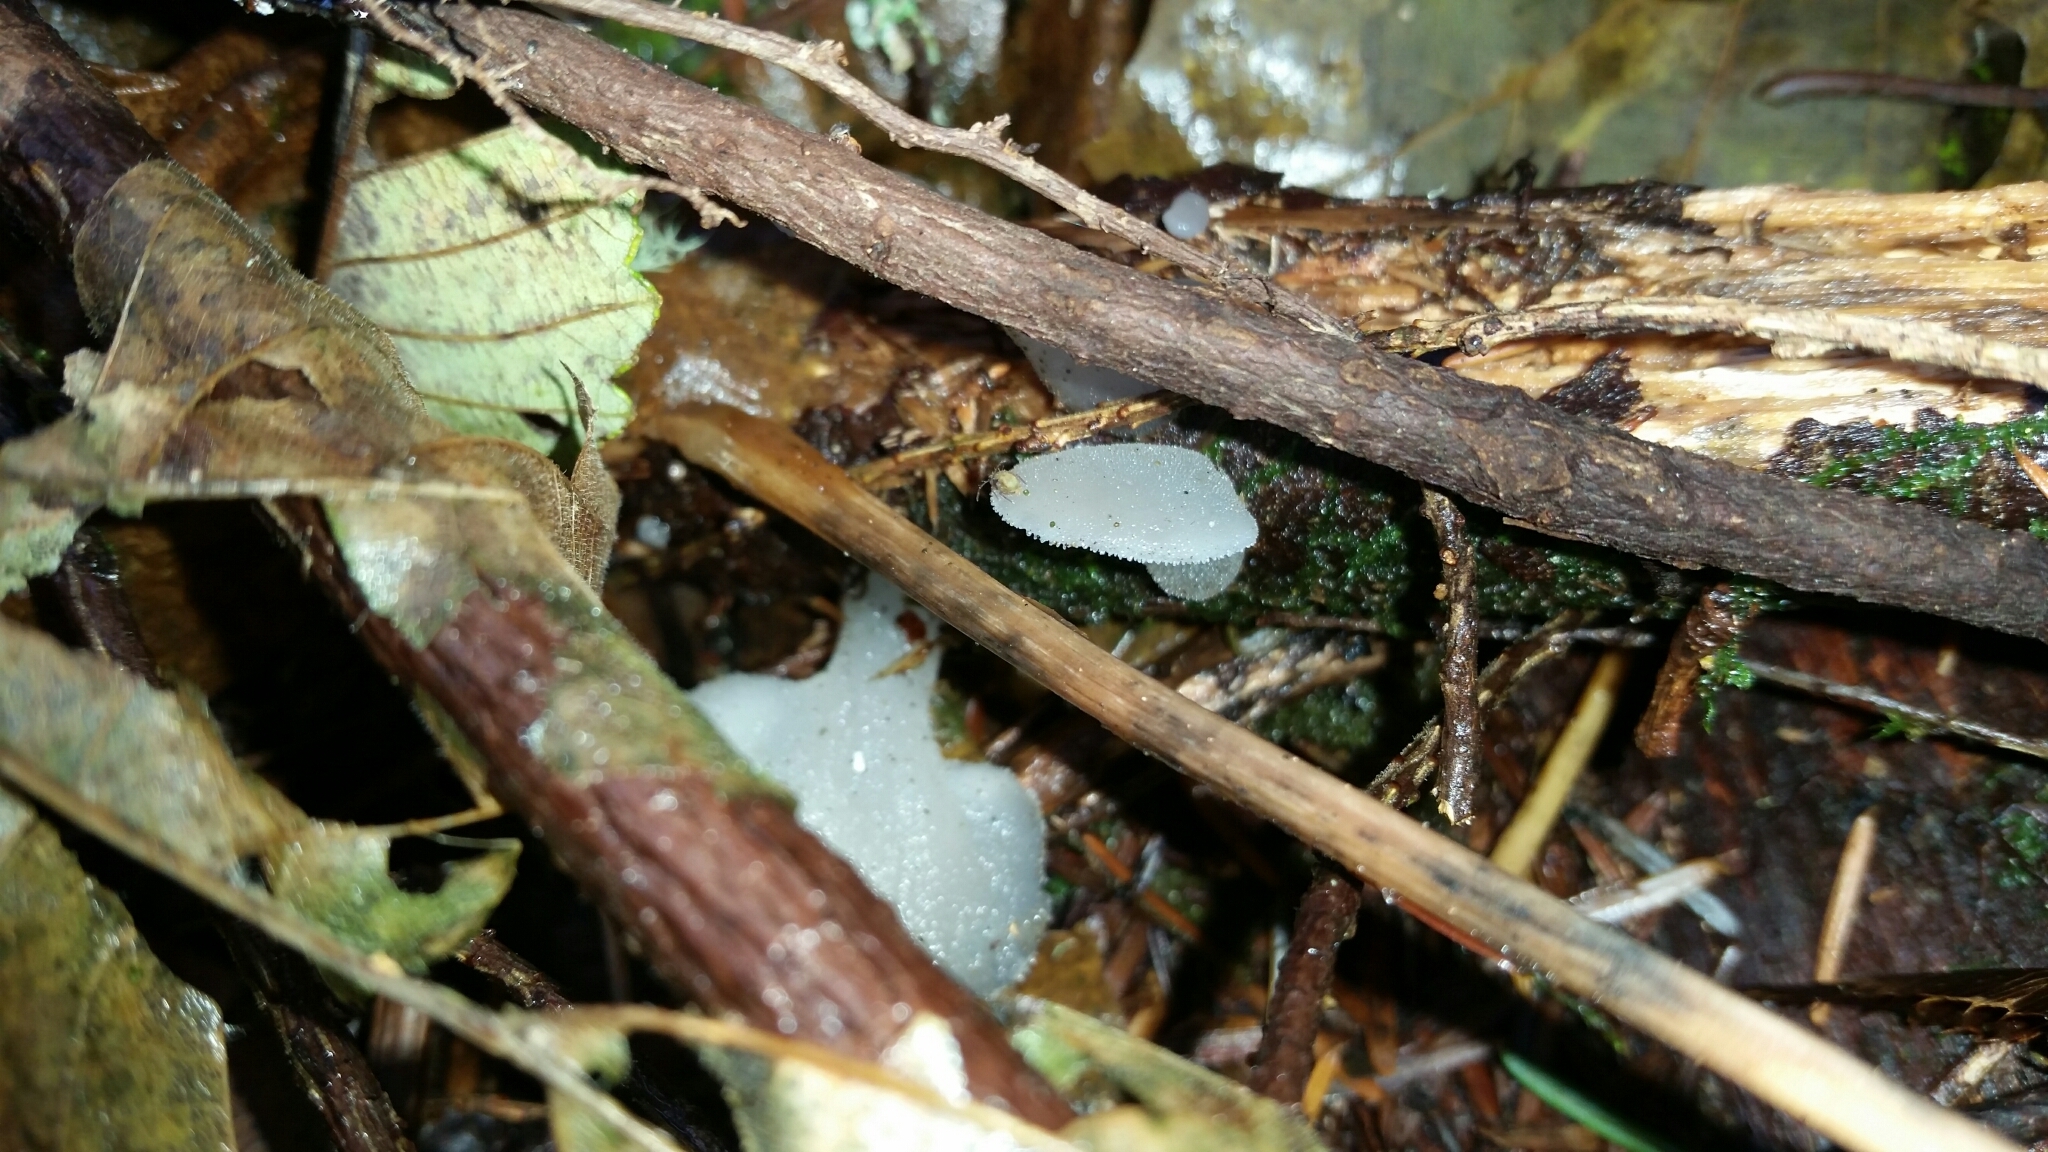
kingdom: Fungi
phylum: Basidiomycota
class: Agaricomycetes
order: Auriculariales
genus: Pseudohydnum
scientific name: Pseudohydnum gelatinosum
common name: Jelly tongue
